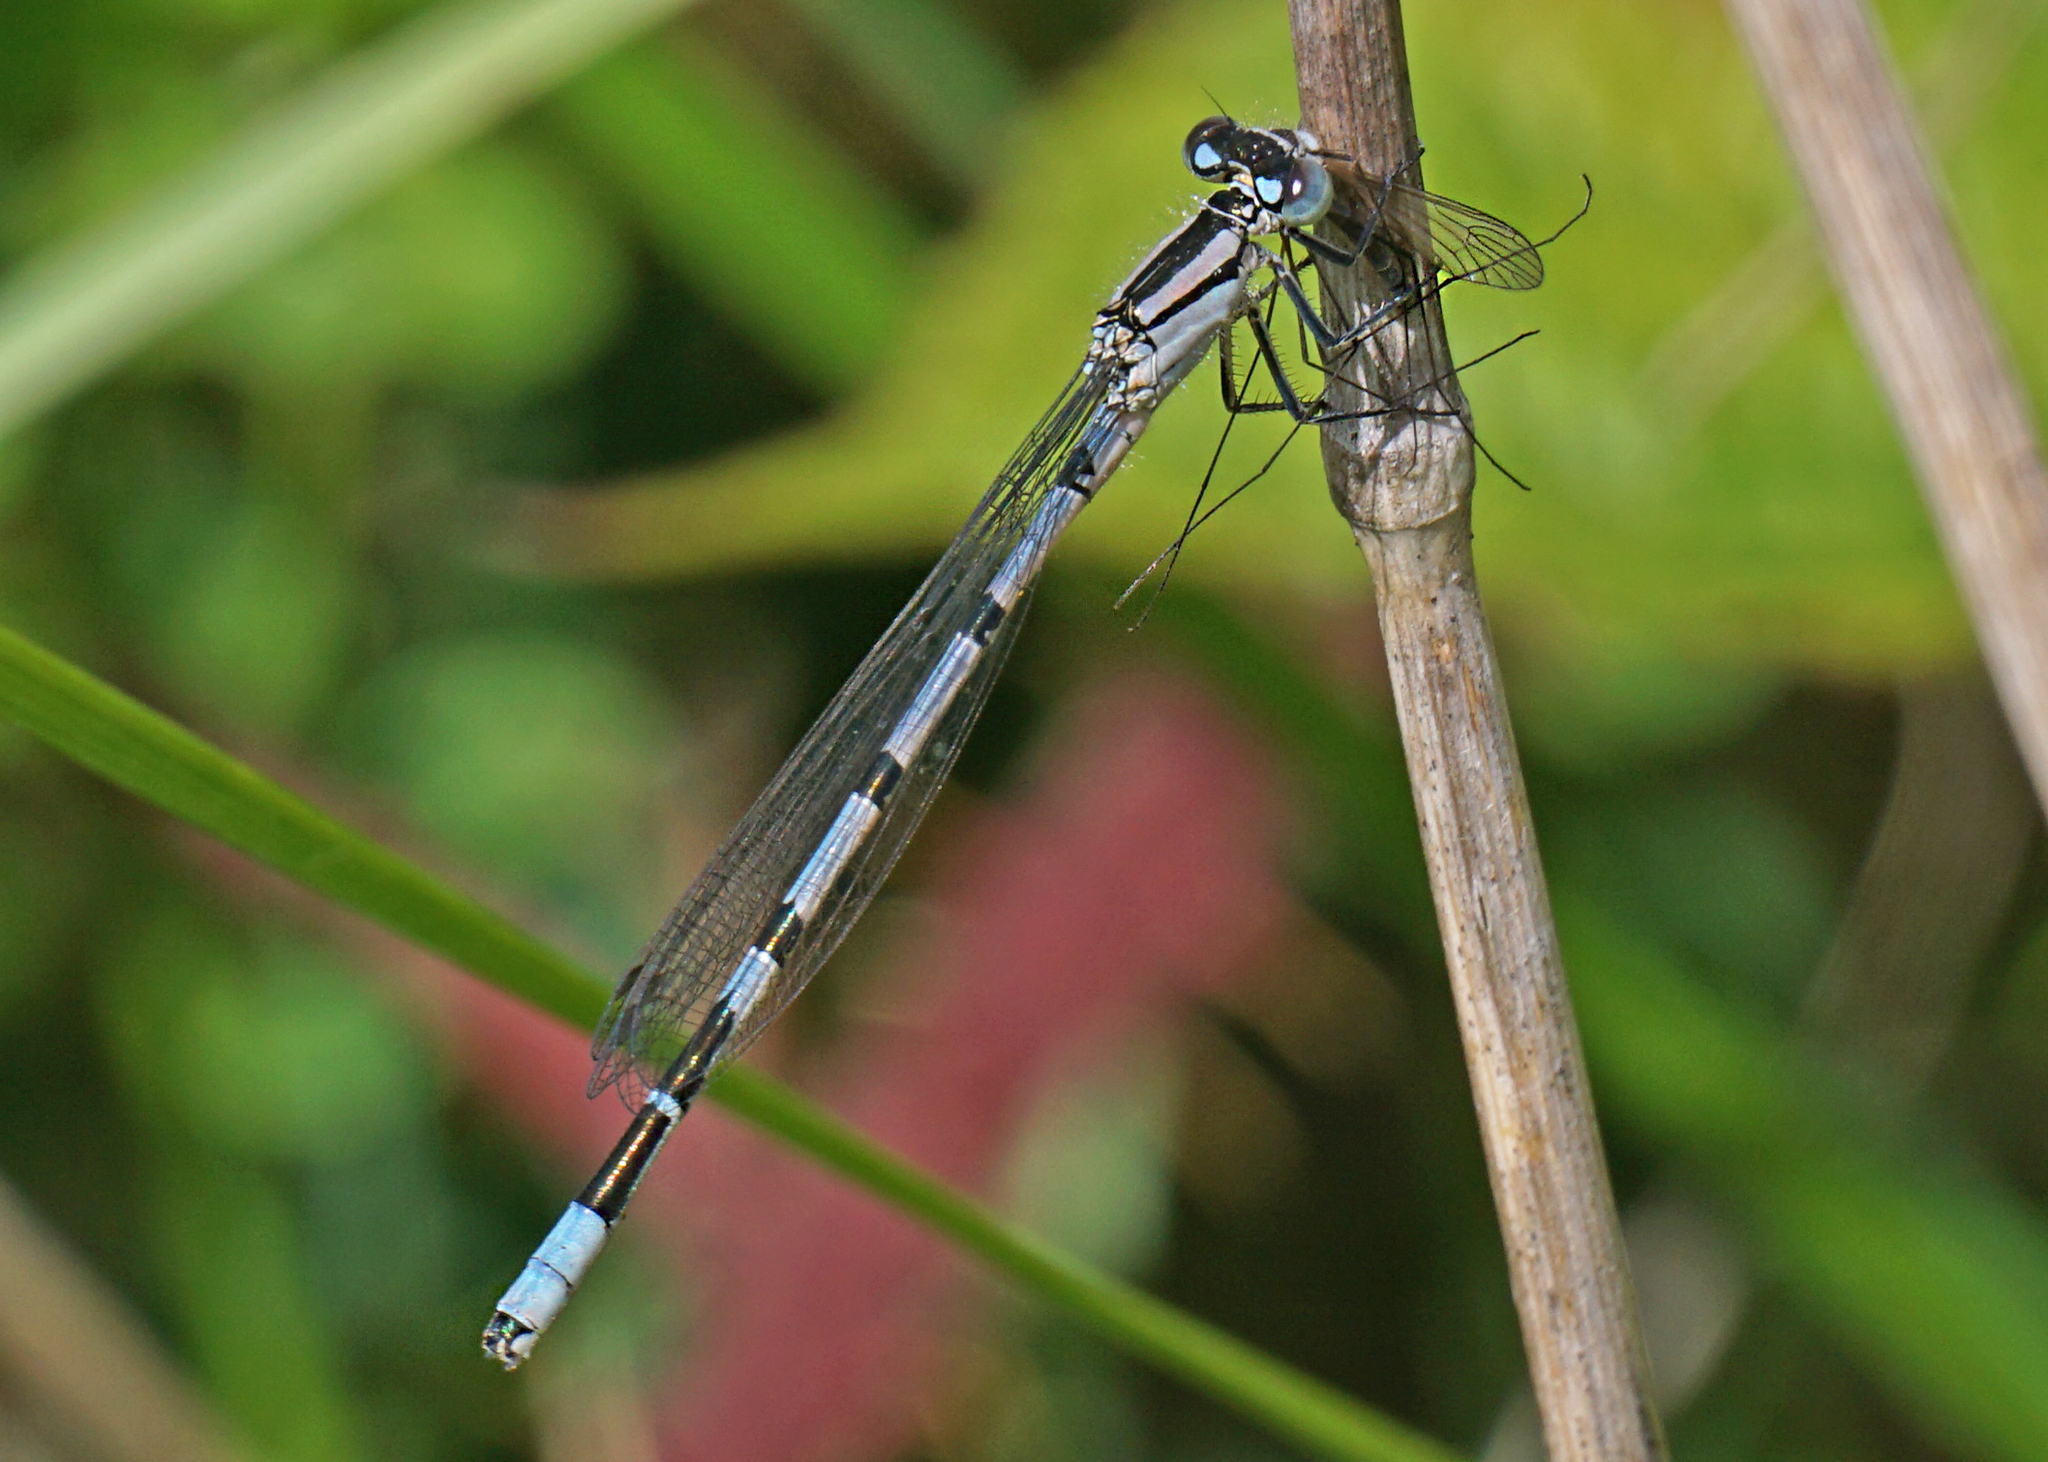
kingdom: Animalia
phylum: Arthropoda
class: Insecta
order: Odonata
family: Coenagrionidae
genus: Enallagma
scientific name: Enallagma cyathigerum
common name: Common blue damselfly
